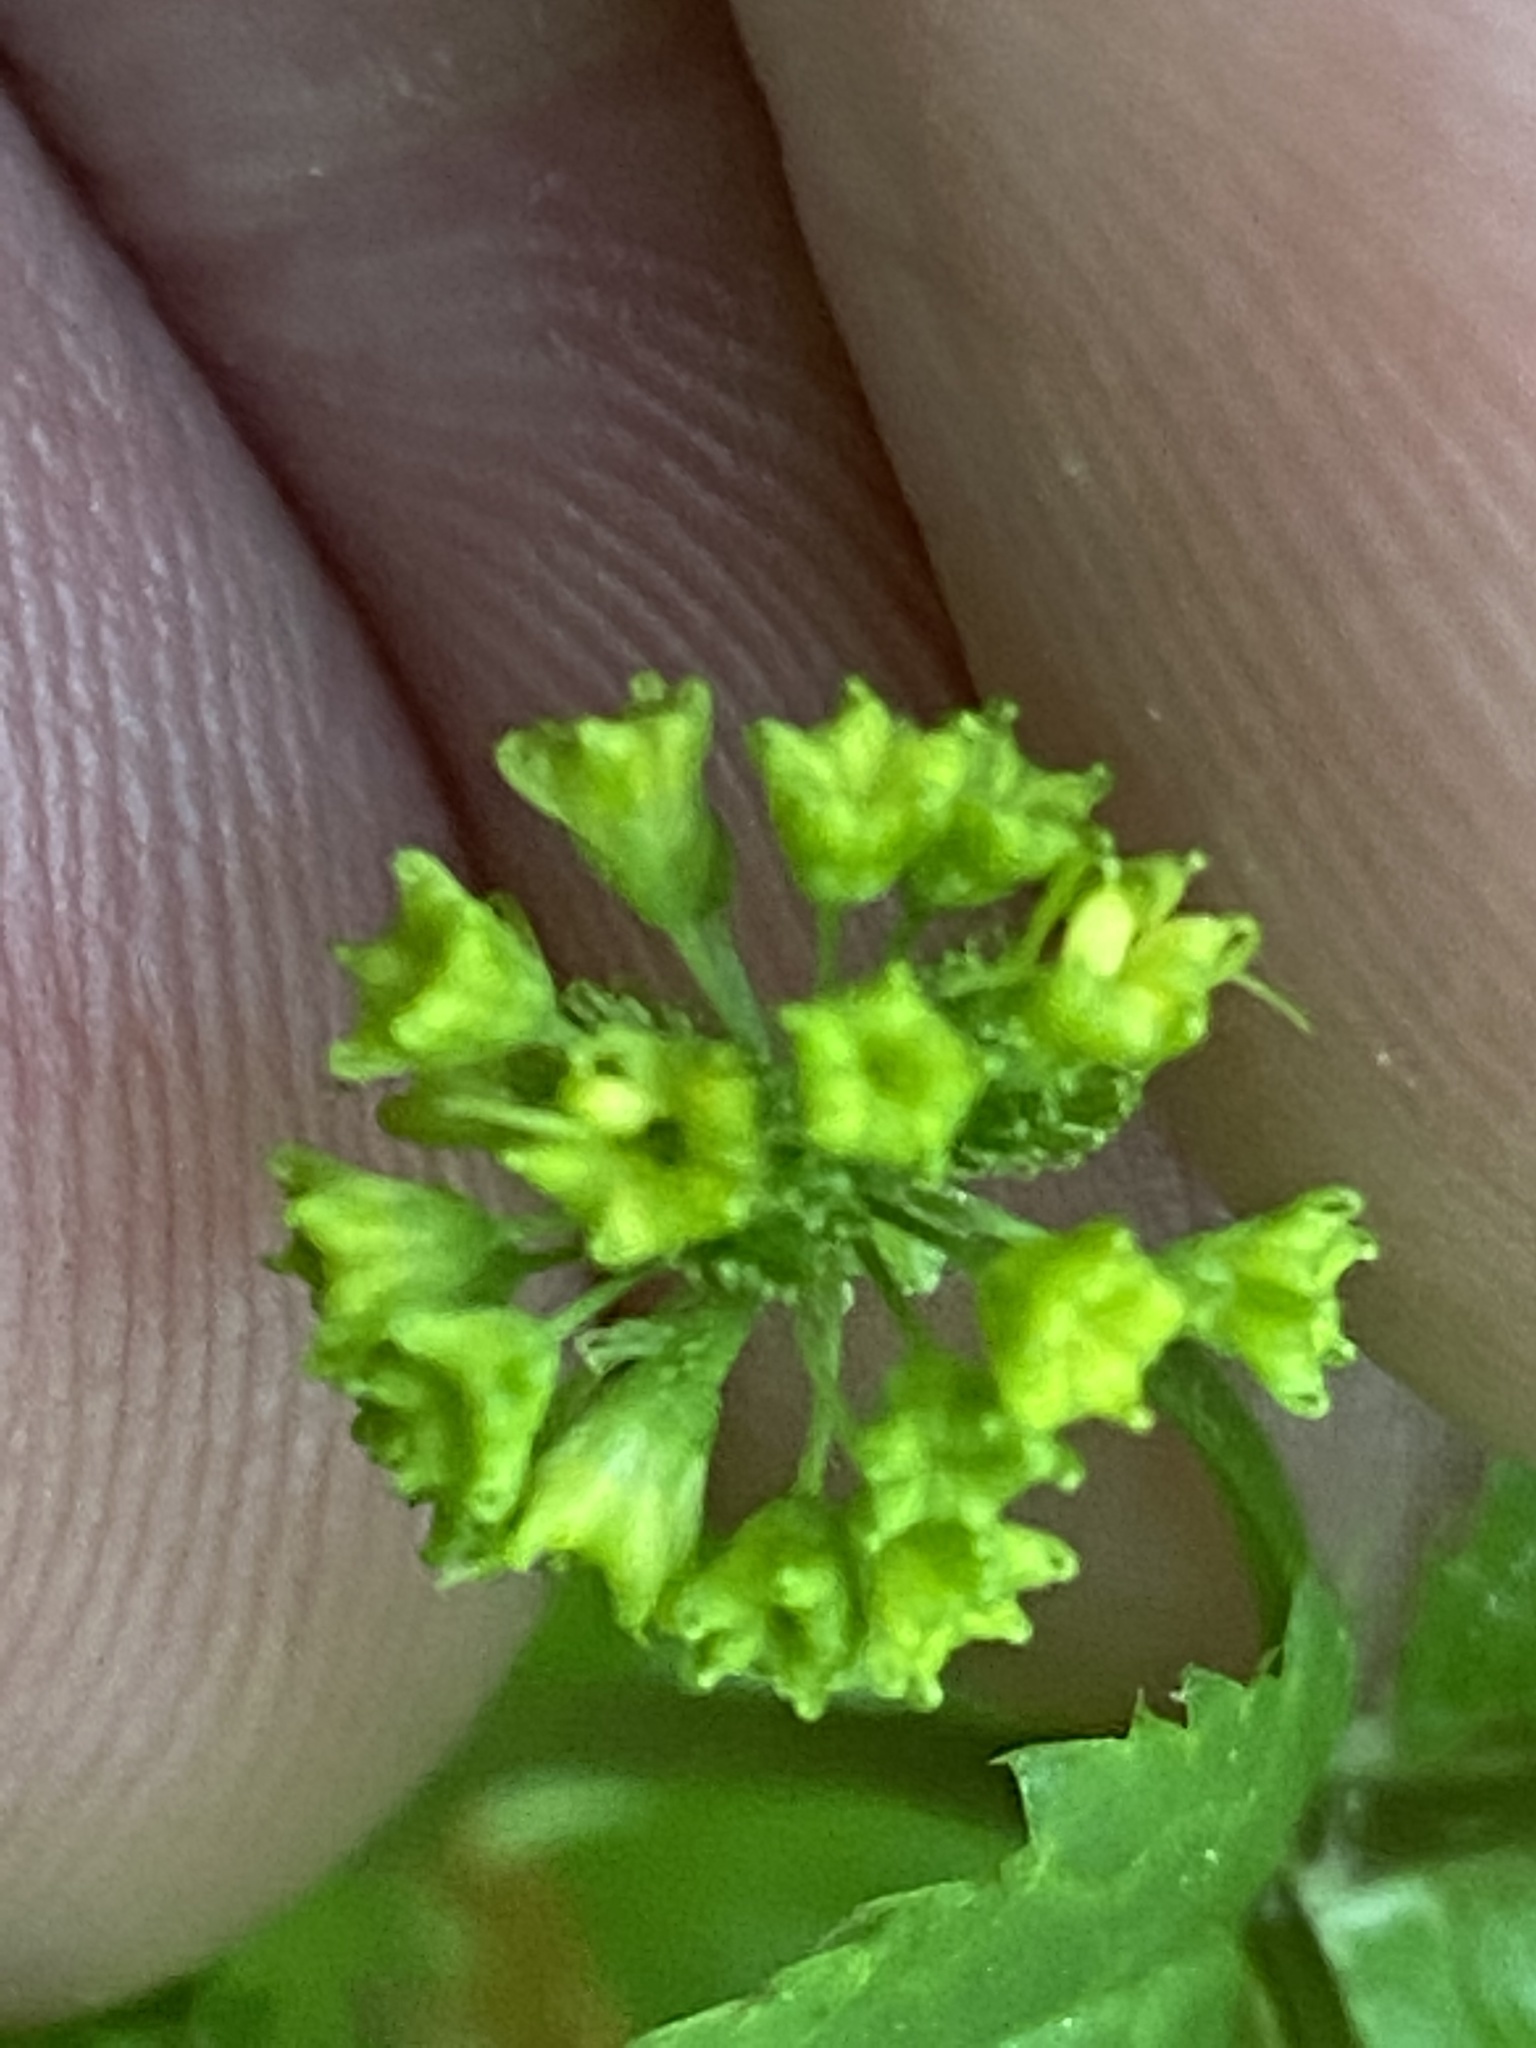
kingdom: Plantae
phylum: Tracheophyta
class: Magnoliopsida
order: Apiales
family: Apiaceae
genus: Sanicula
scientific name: Sanicula odorata
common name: Cluster sanicle
